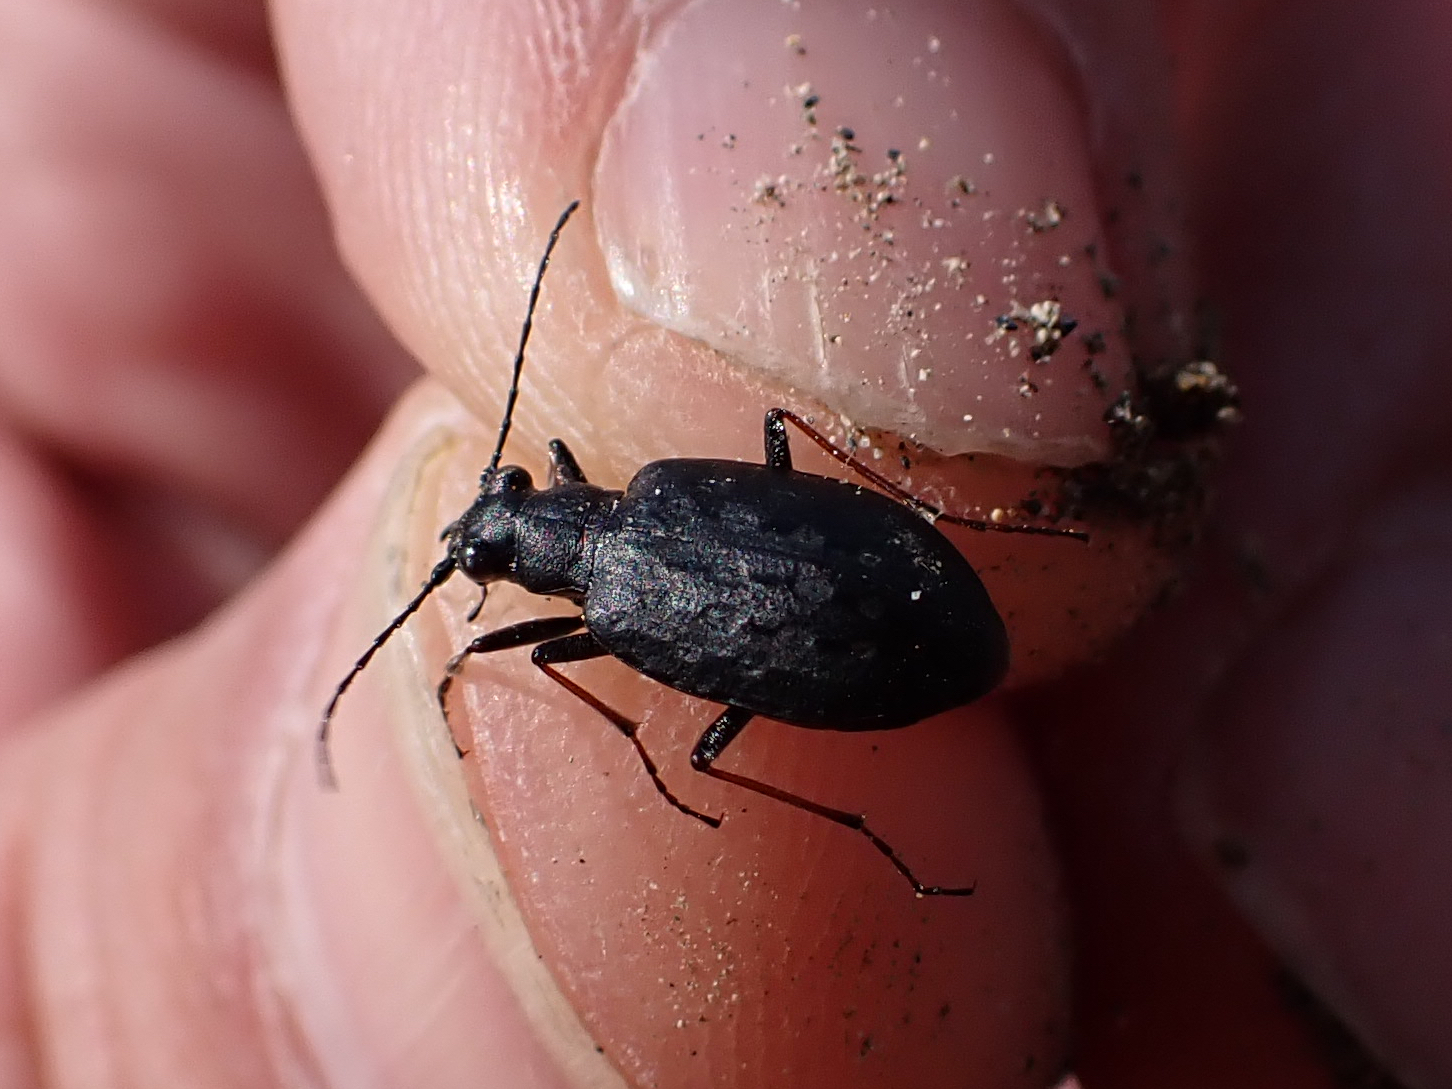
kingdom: Animalia
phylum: Arthropoda
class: Insecta
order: Coleoptera
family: Carabidae
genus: Opisthius
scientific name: Opisthius richardsoni
